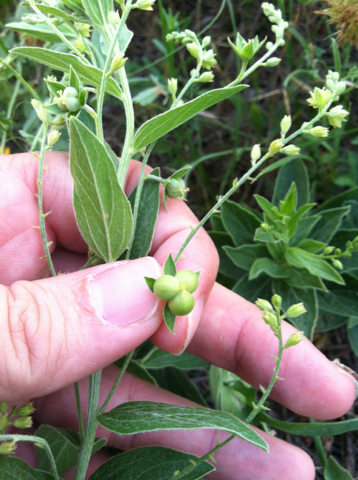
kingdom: Plantae
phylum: Tracheophyta
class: Magnoliopsida
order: Malpighiales
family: Euphorbiaceae
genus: Ditaxis
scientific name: Ditaxis mercurialina
